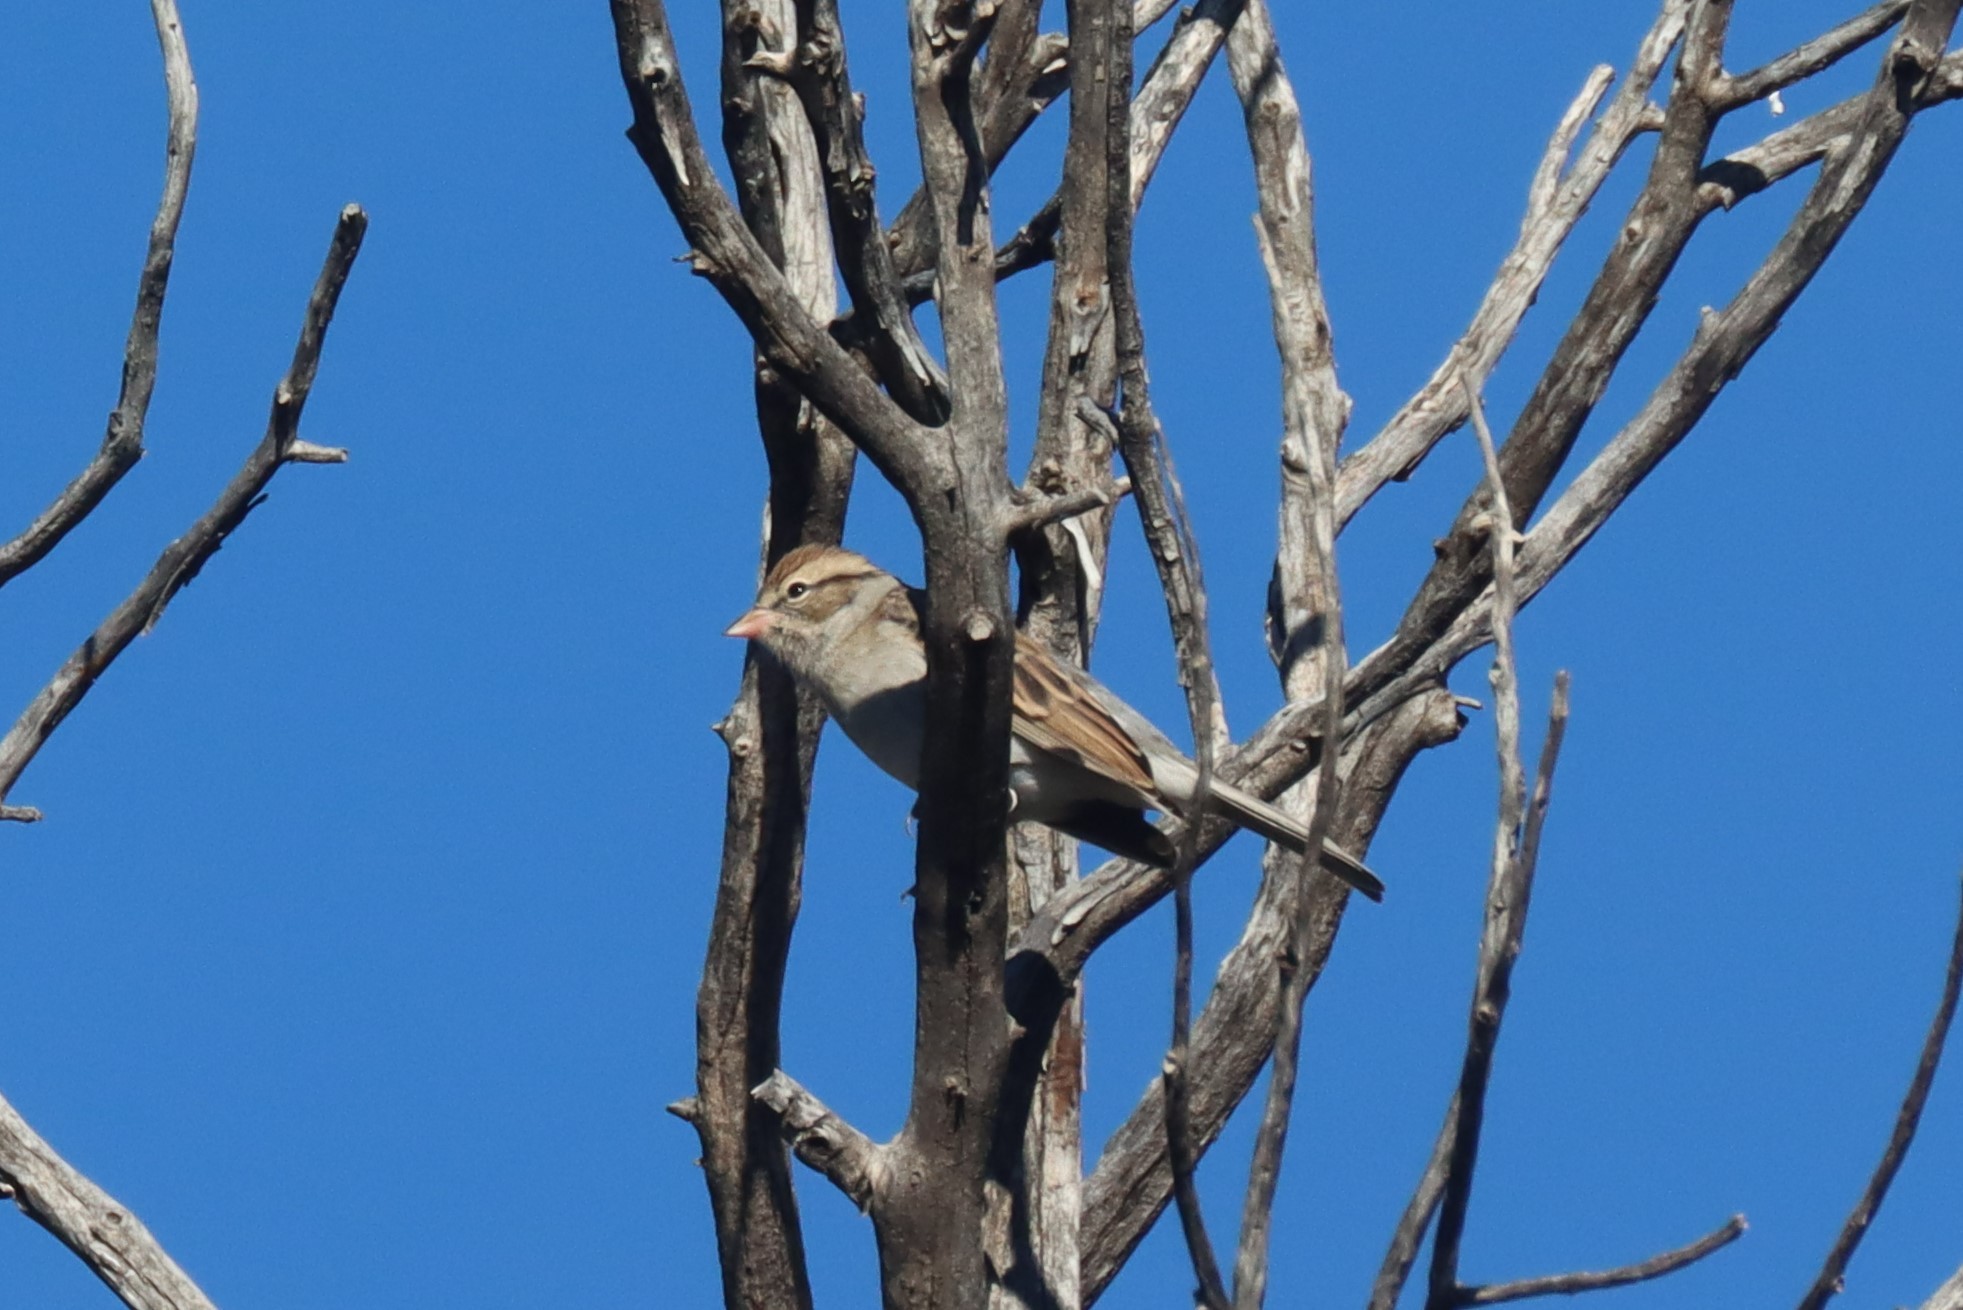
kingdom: Animalia
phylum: Chordata
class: Aves
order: Passeriformes
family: Passerellidae
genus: Spizella
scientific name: Spizella passerina
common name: Chipping sparrow
